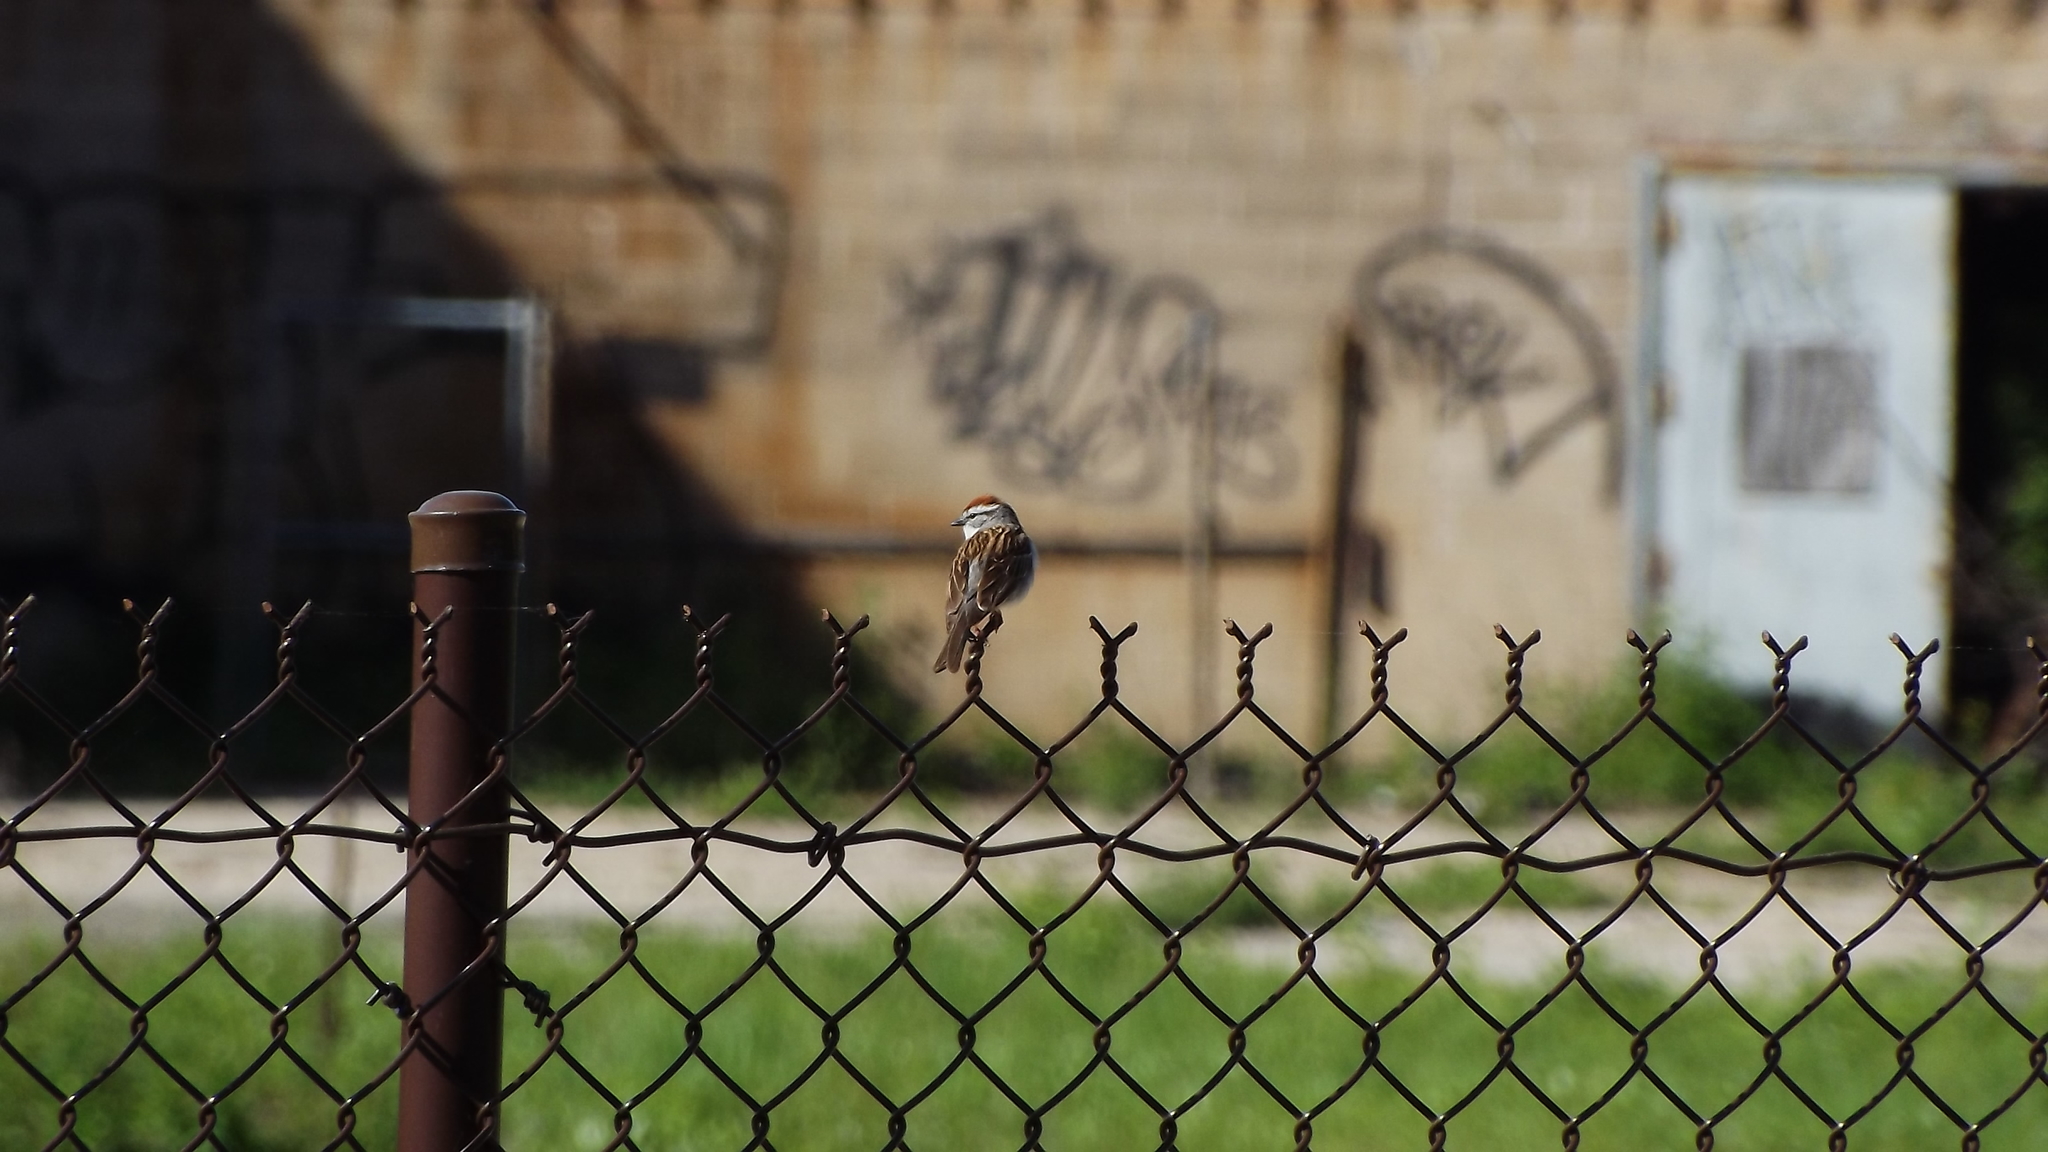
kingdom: Animalia
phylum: Chordata
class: Aves
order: Passeriformes
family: Passerellidae
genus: Spizella
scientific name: Spizella passerina
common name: Chipping sparrow
